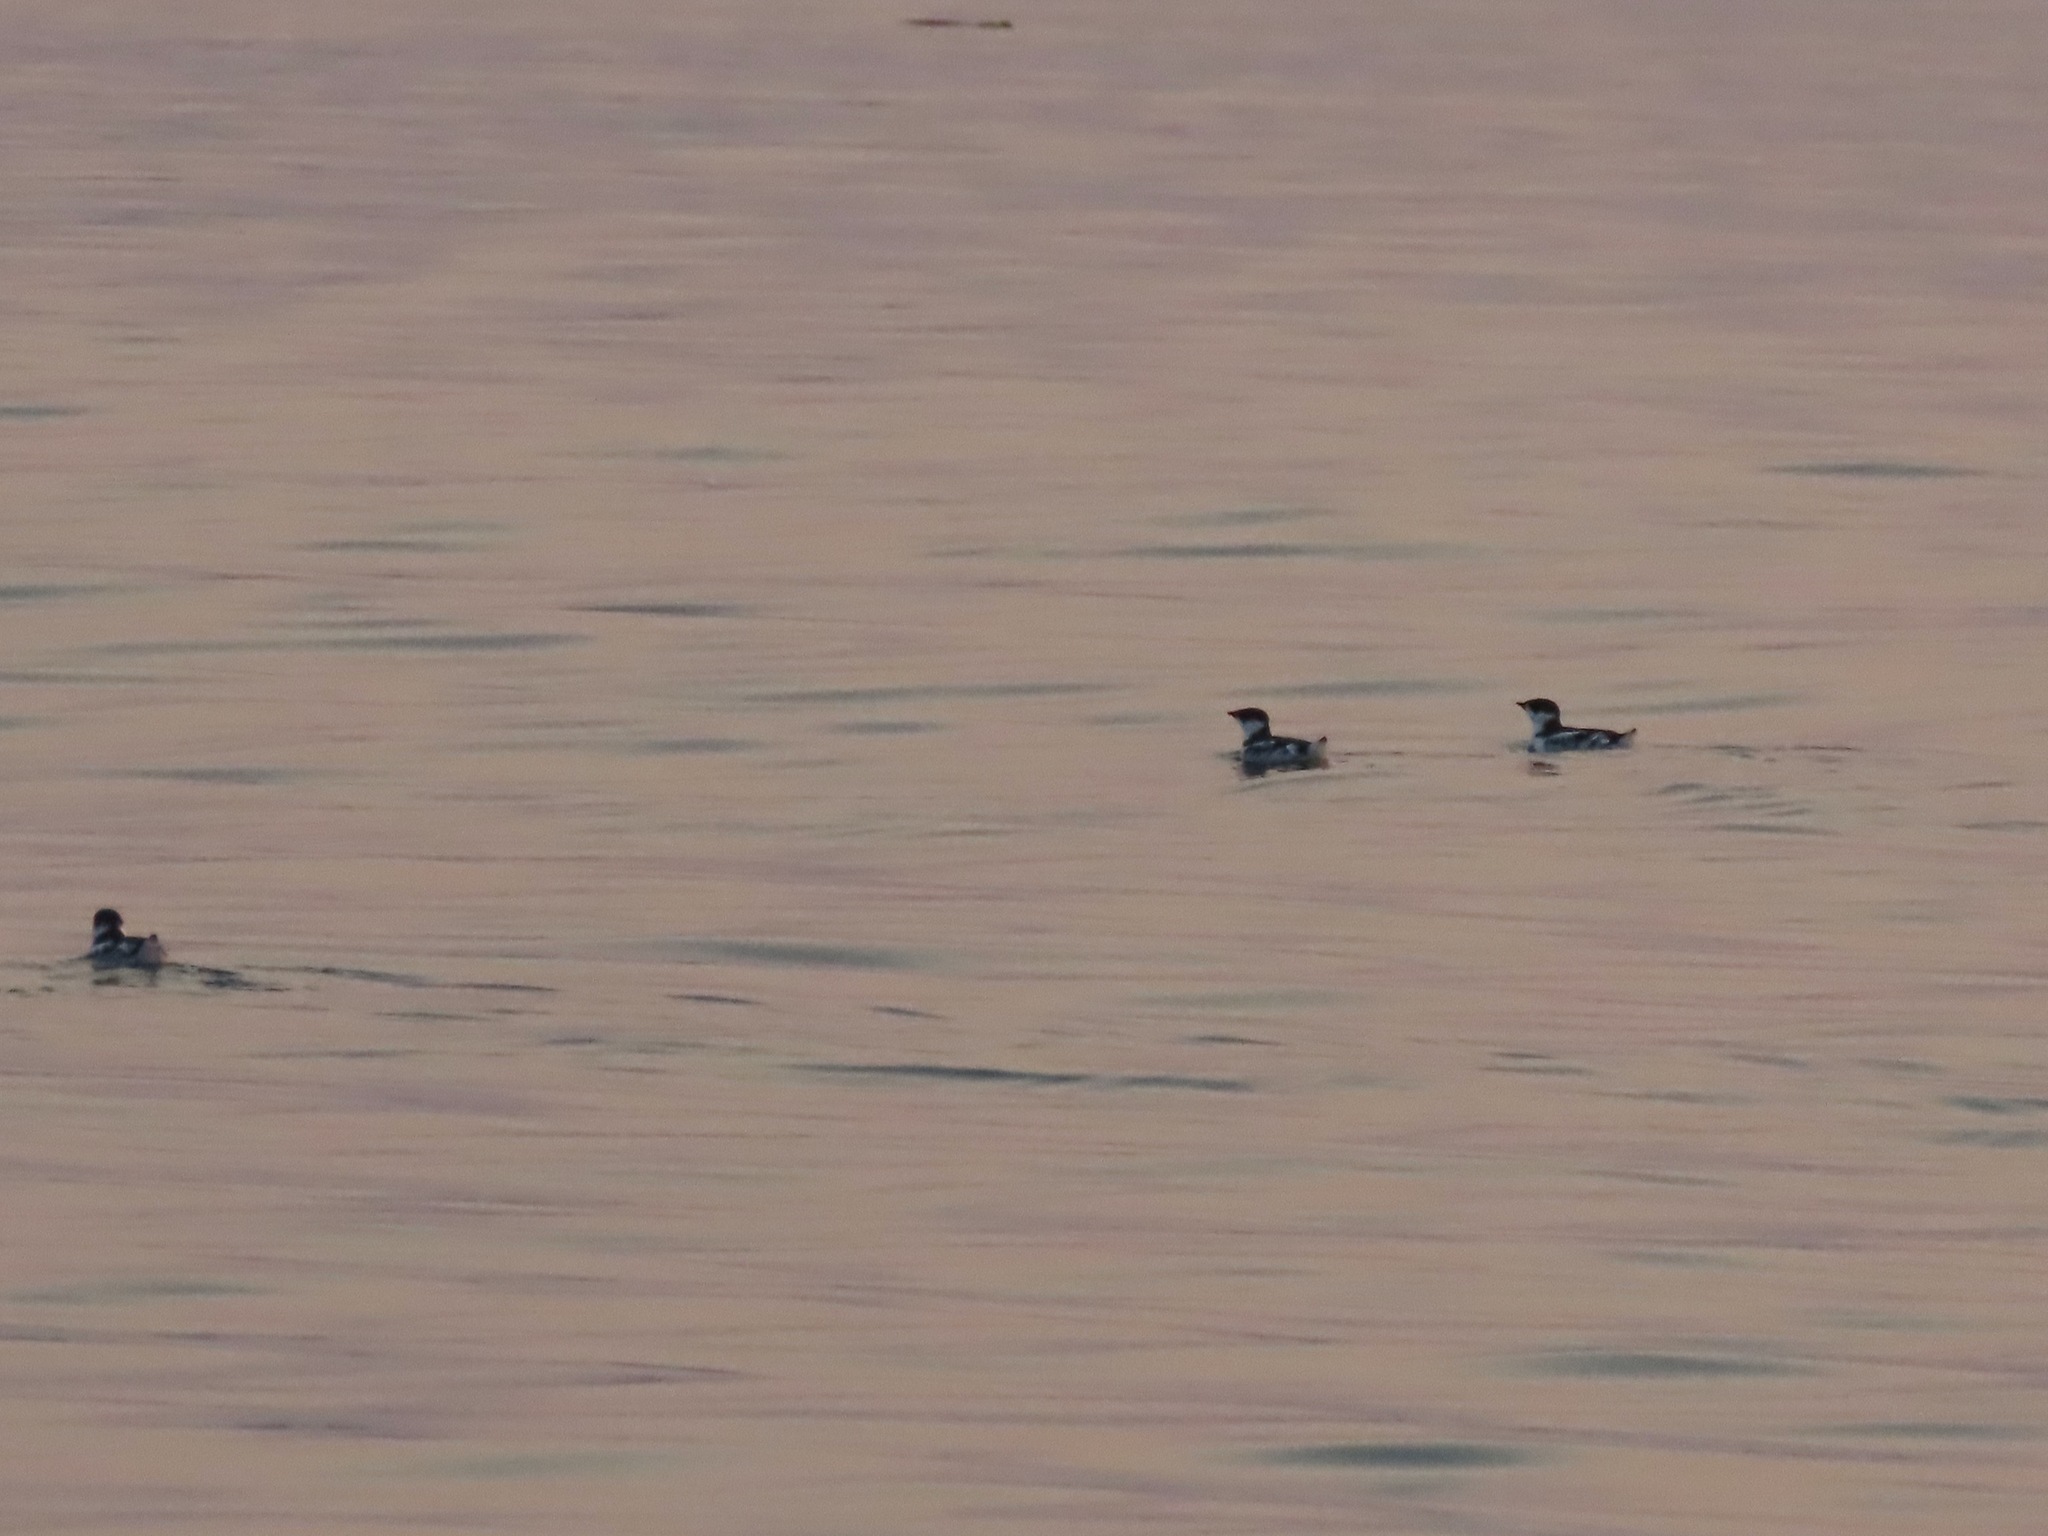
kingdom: Animalia
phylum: Chordata
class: Aves
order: Charadriiformes
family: Alcidae
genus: Brachyramphus
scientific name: Brachyramphus marmoratus
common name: Marbled murrelet
